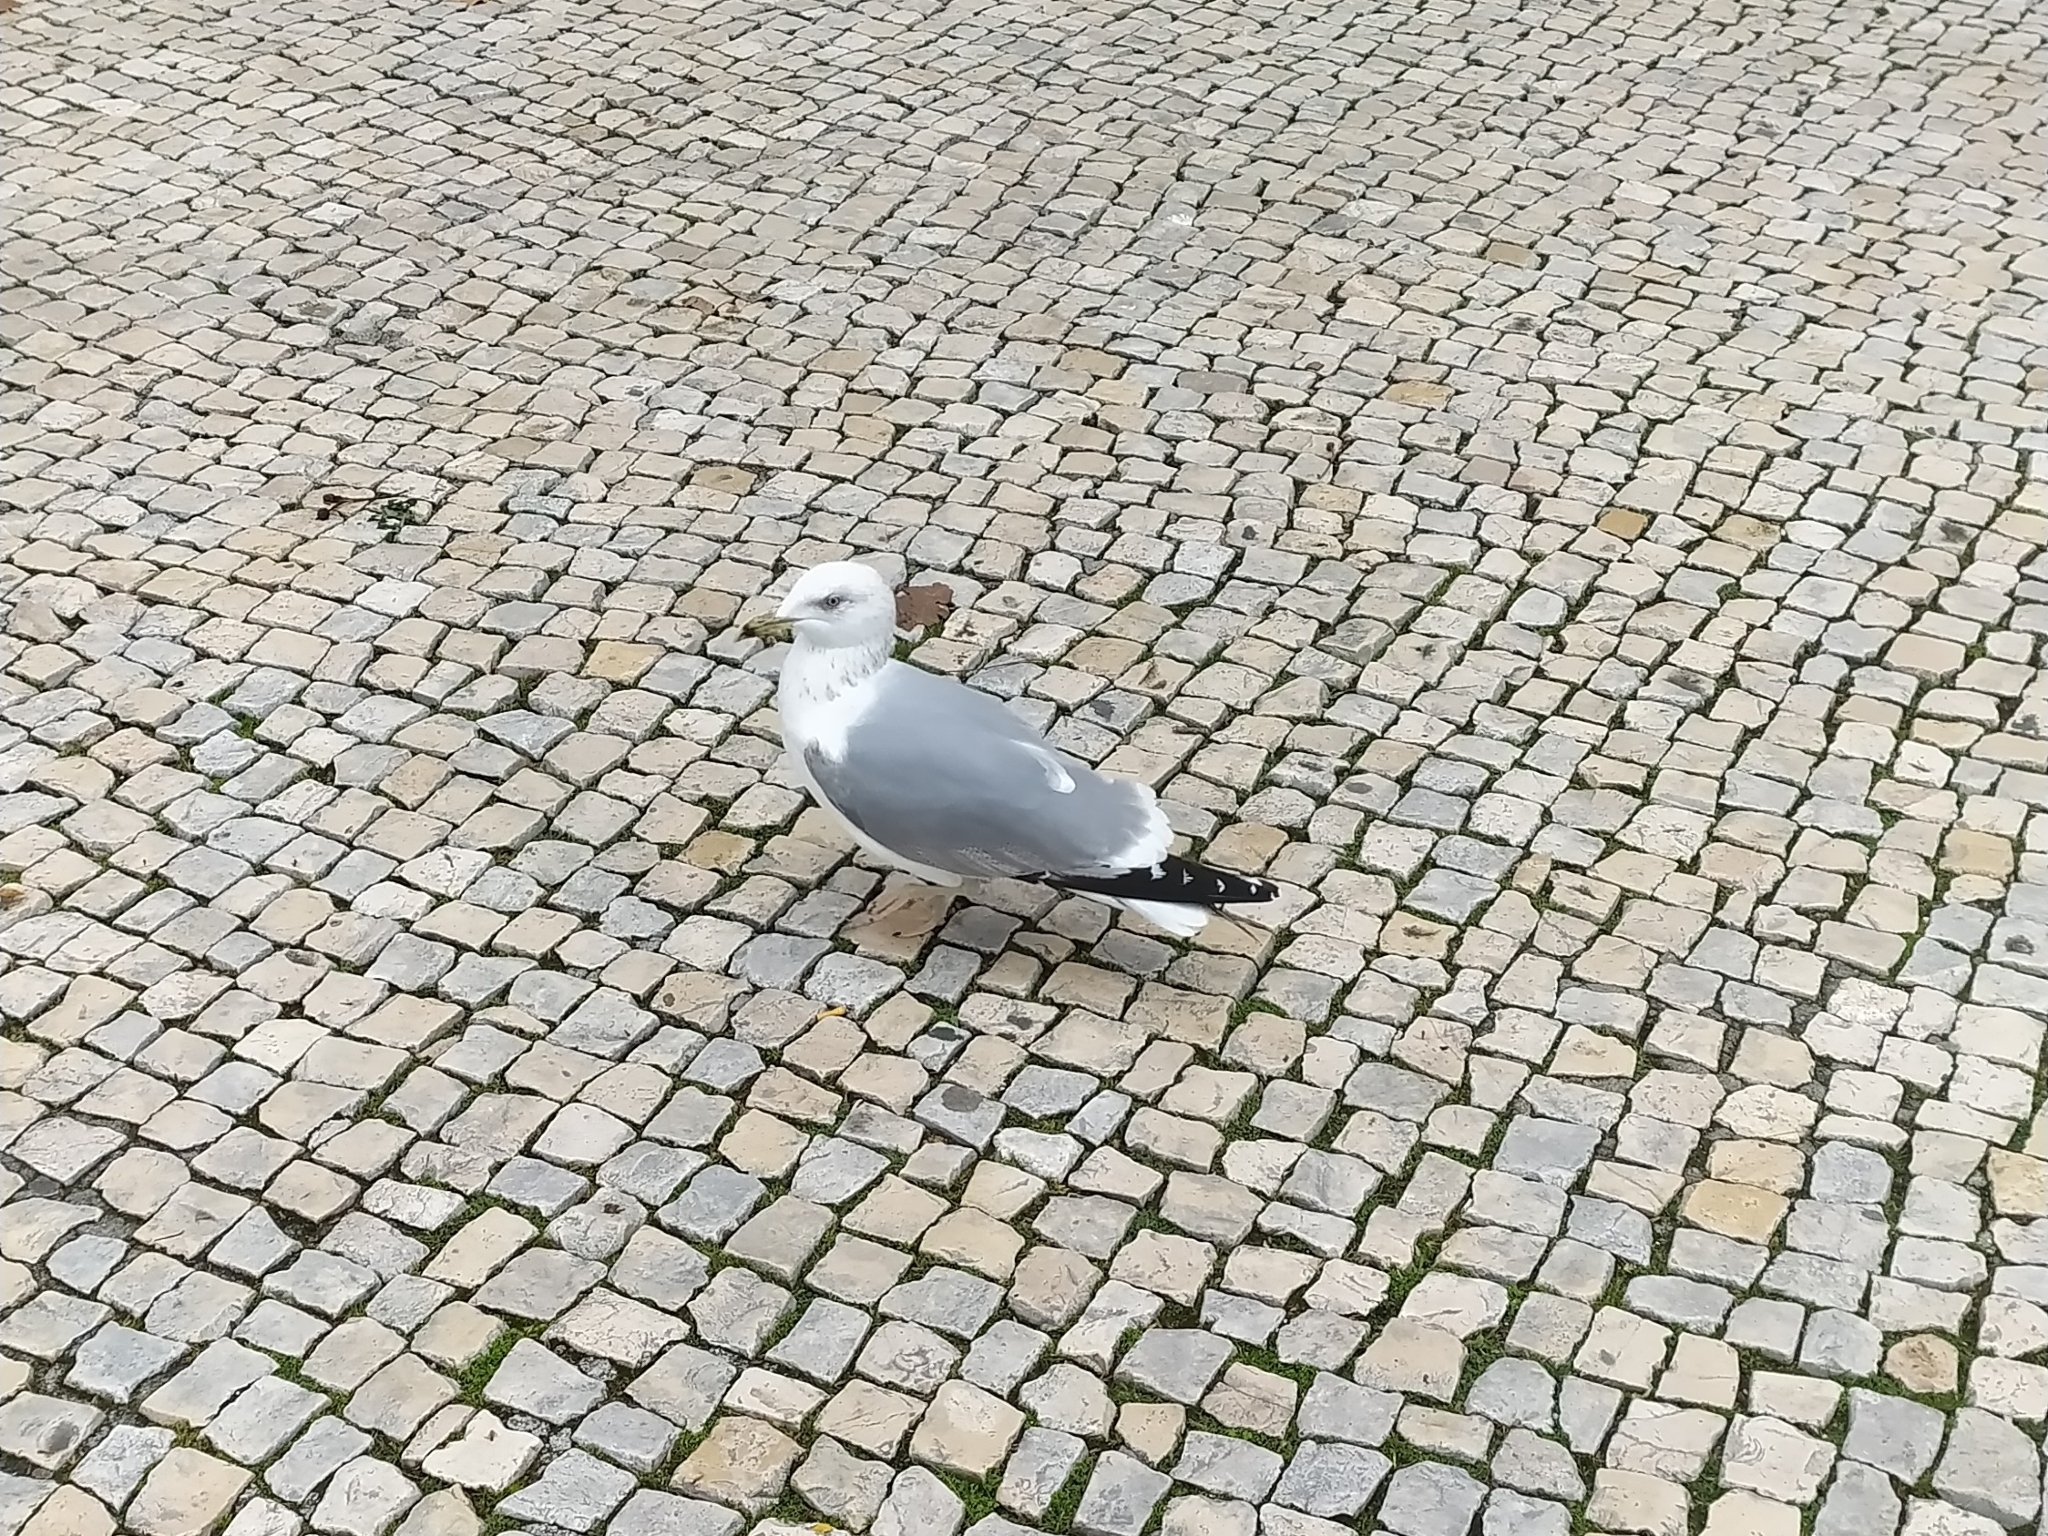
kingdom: Animalia
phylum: Chordata
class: Aves
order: Charadriiformes
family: Laridae
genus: Larus
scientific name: Larus michahellis
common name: Yellow-legged gull
